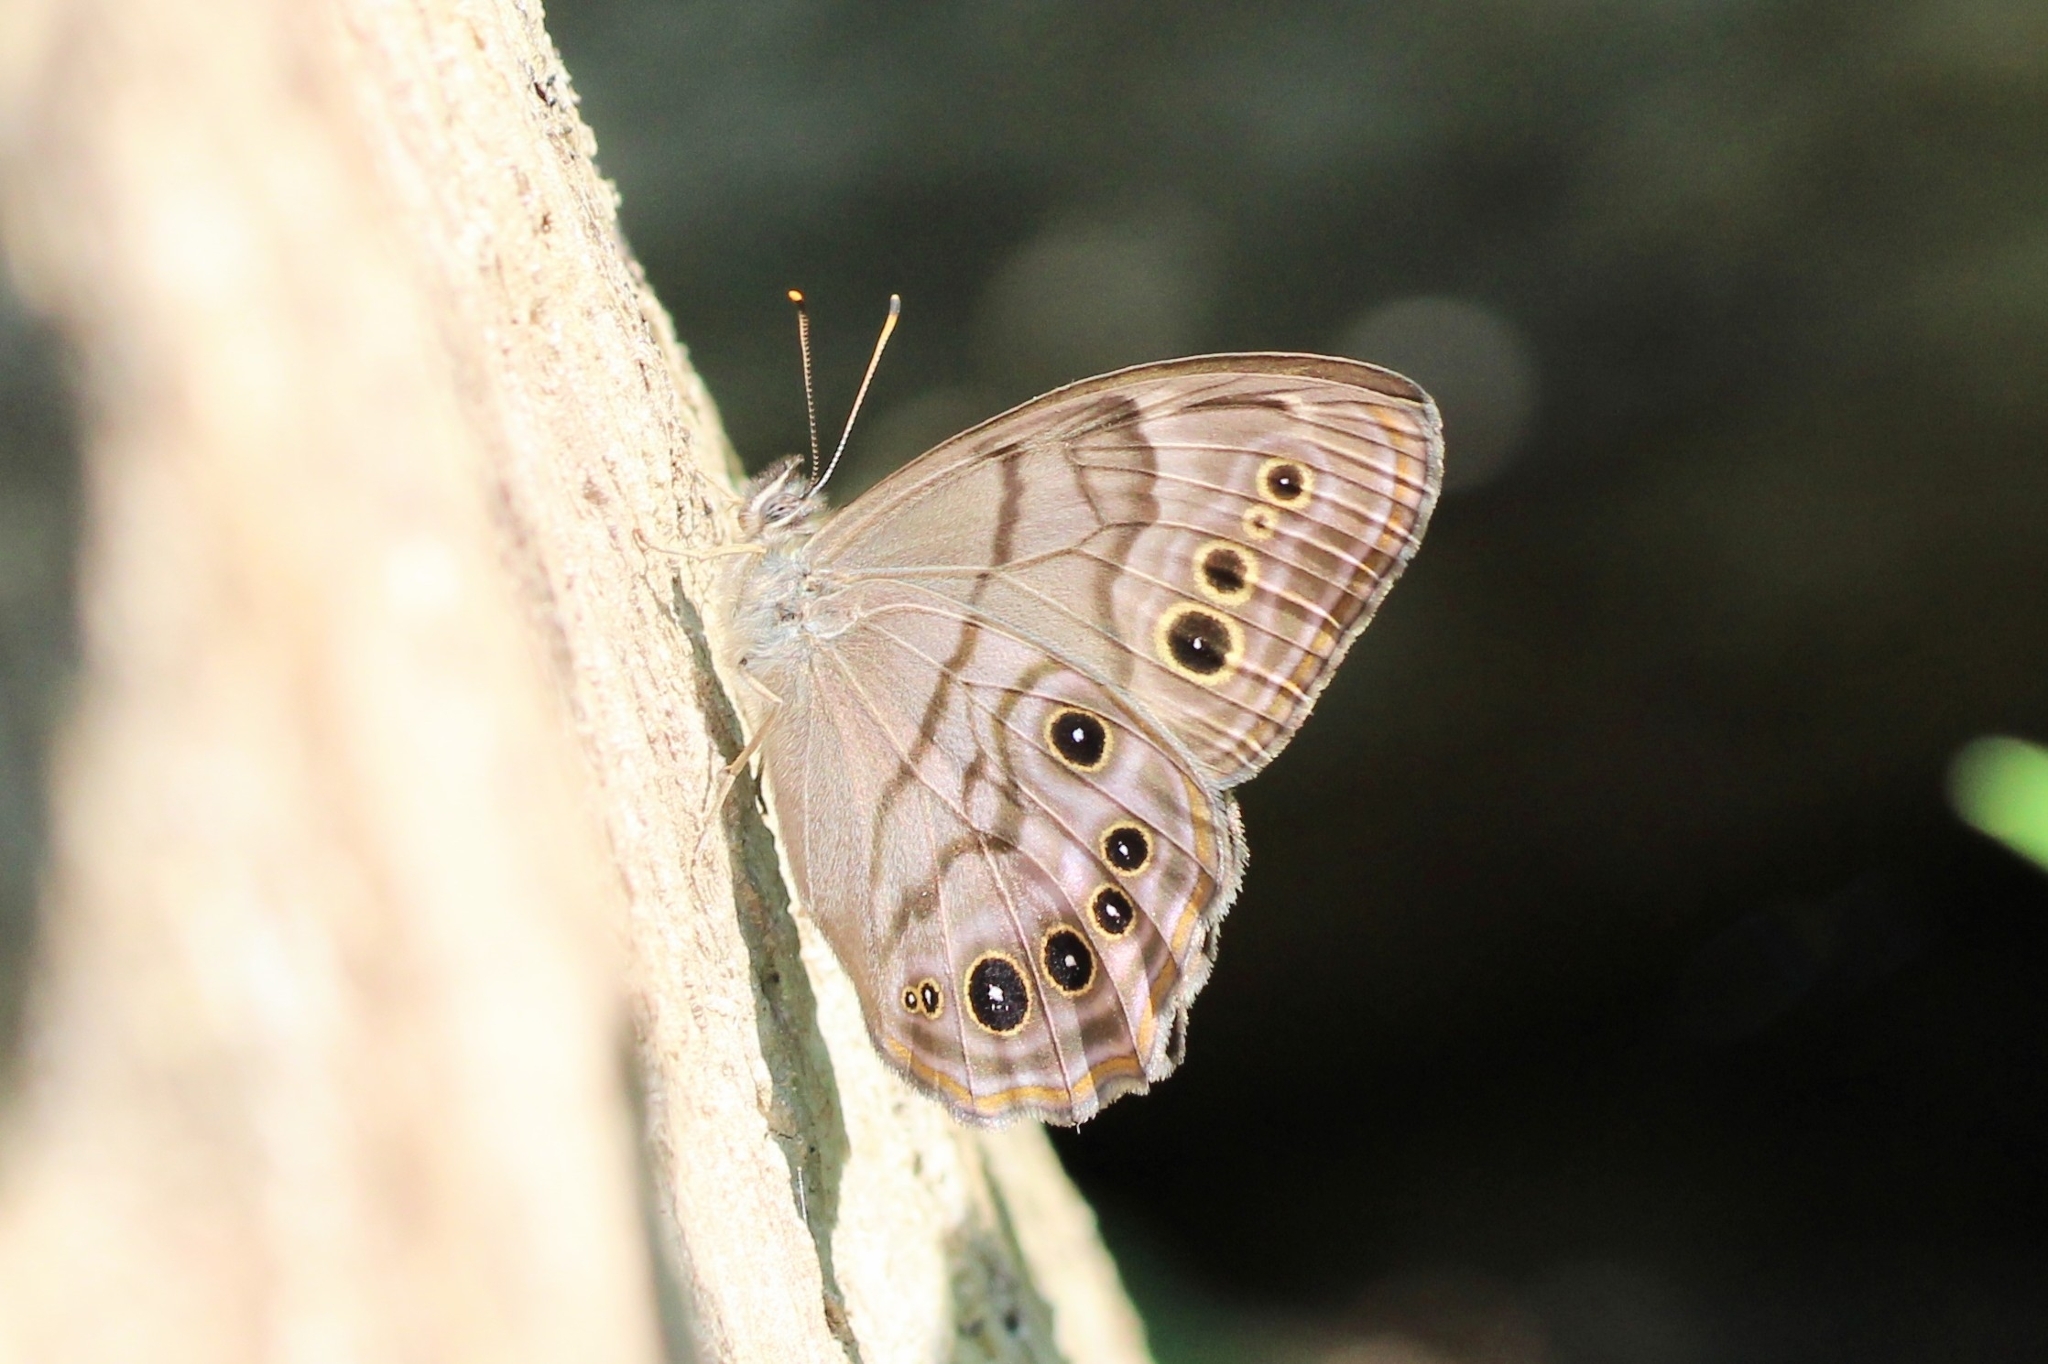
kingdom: Animalia
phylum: Arthropoda
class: Insecta
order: Lepidoptera
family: Nymphalidae
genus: Lethe
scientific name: Lethe anthedon
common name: Northern pearly-eye
